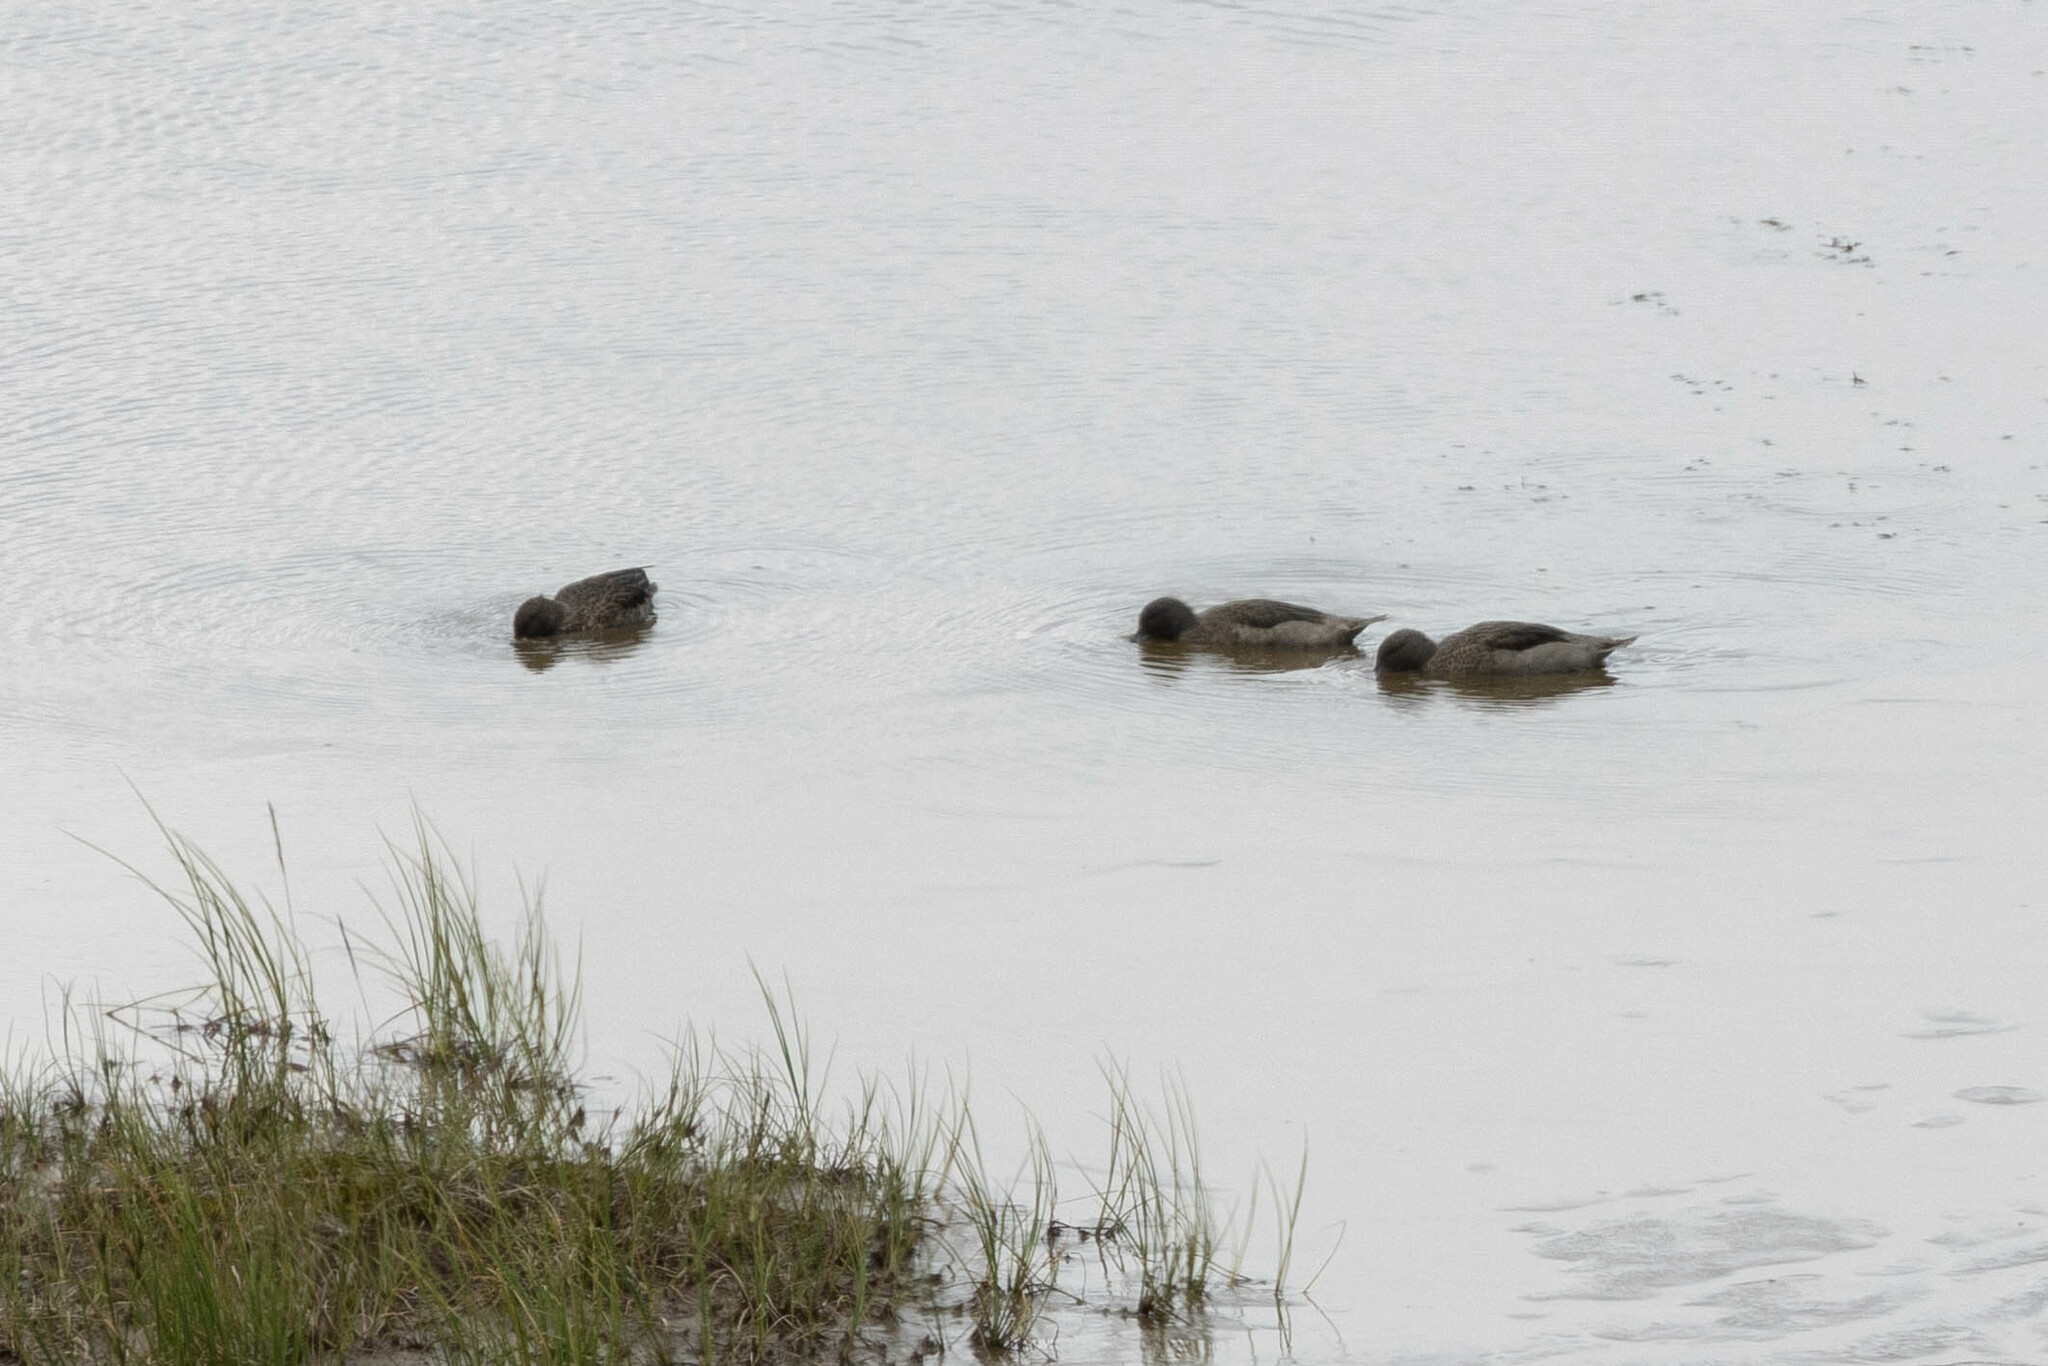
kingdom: Animalia
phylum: Chordata
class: Aves
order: Anseriformes
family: Anatidae
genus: Anas
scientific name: Anas andium
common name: Andean teal
